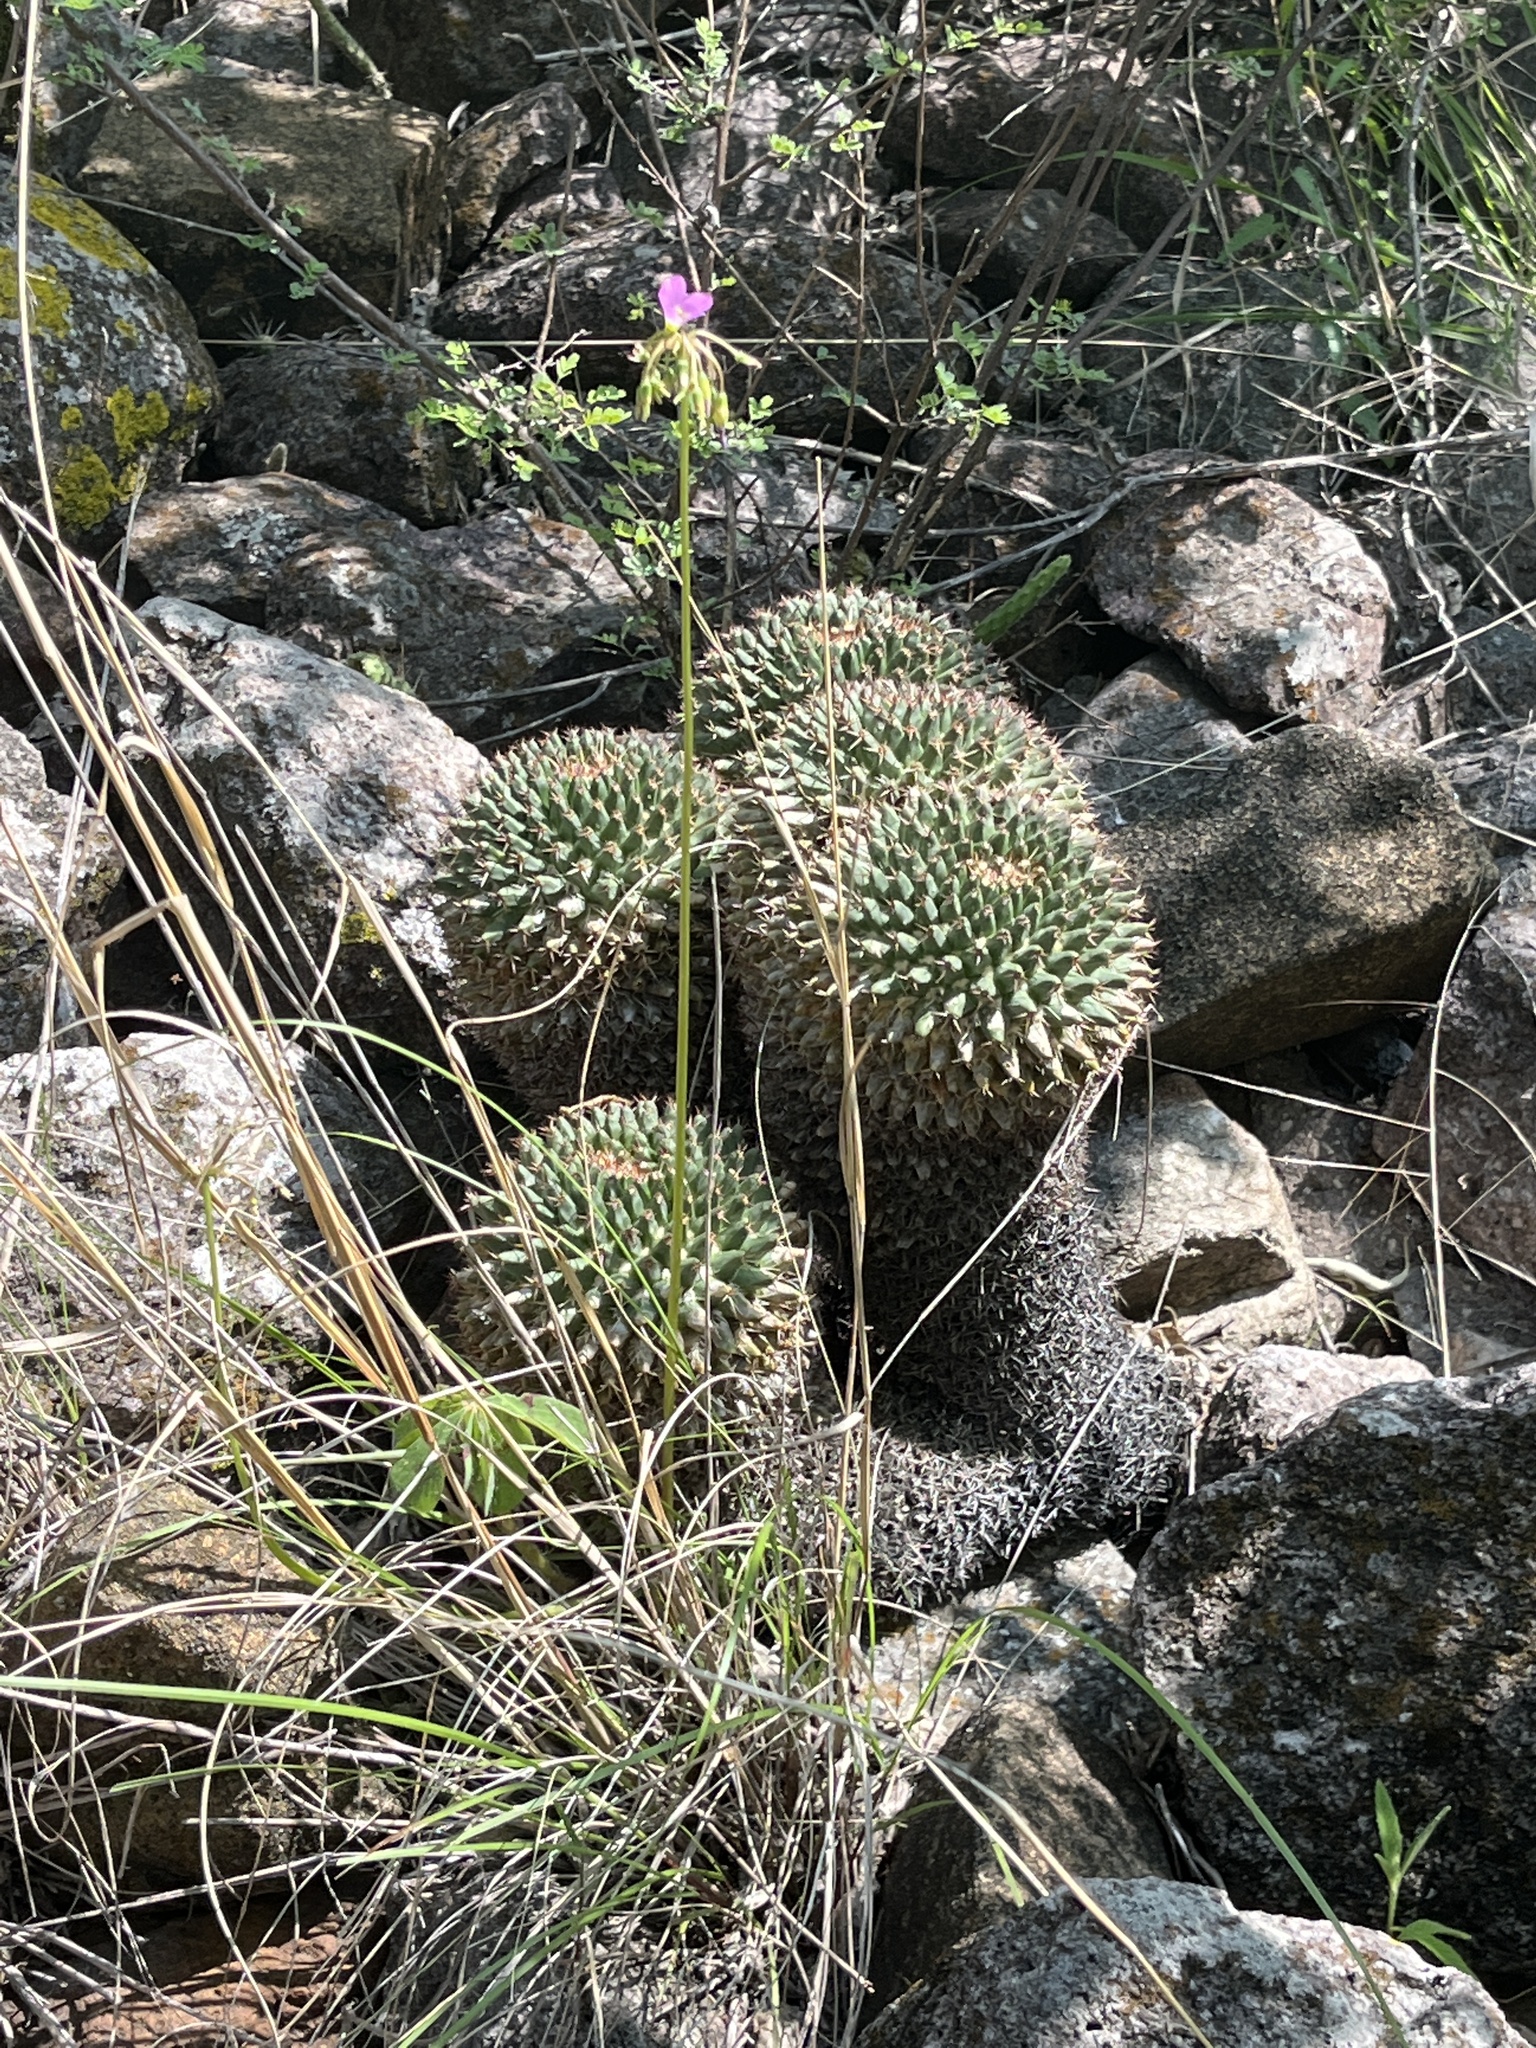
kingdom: Plantae
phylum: Tracheophyta
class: Magnoliopsida
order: Caryophyllales
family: Cactaceae
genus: Mammillaria
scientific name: Mammillaria karwinskiana
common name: Royal cross
